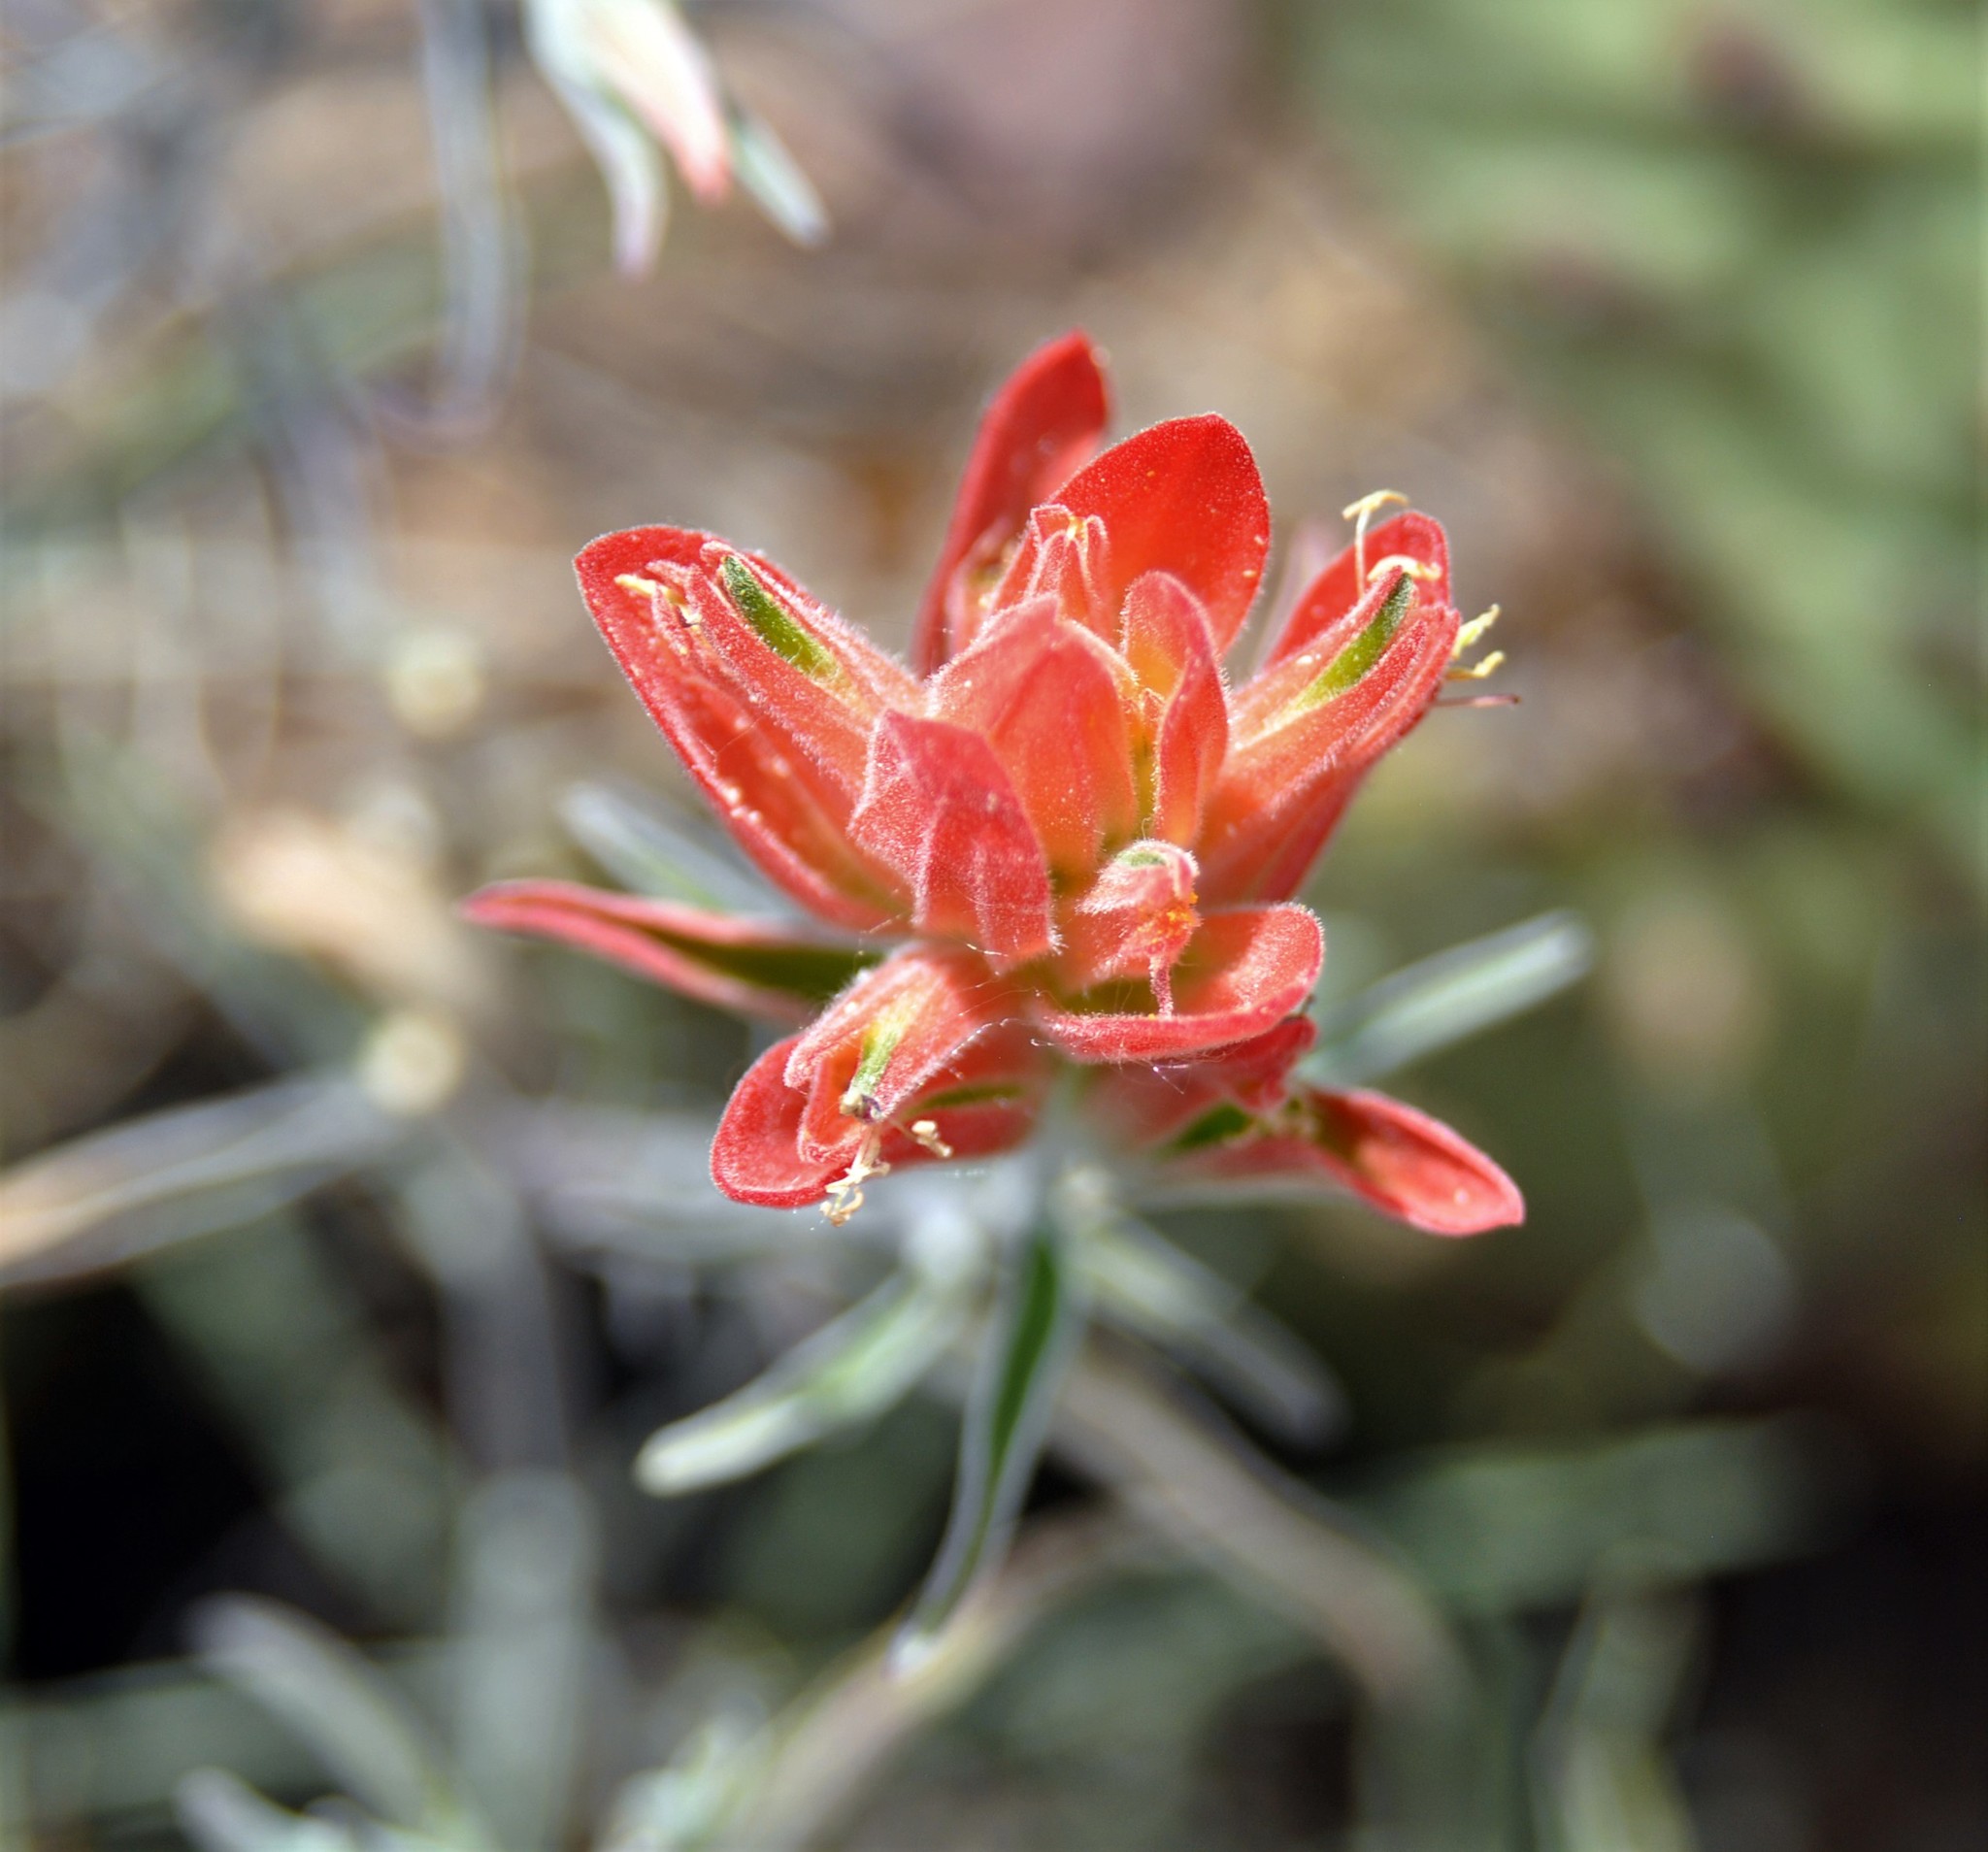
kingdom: Plantae
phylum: Tracheophyta
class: Magnoliopsida
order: Lamiales
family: Orobanchaceae
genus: Castilleja
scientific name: Castilleja integra
